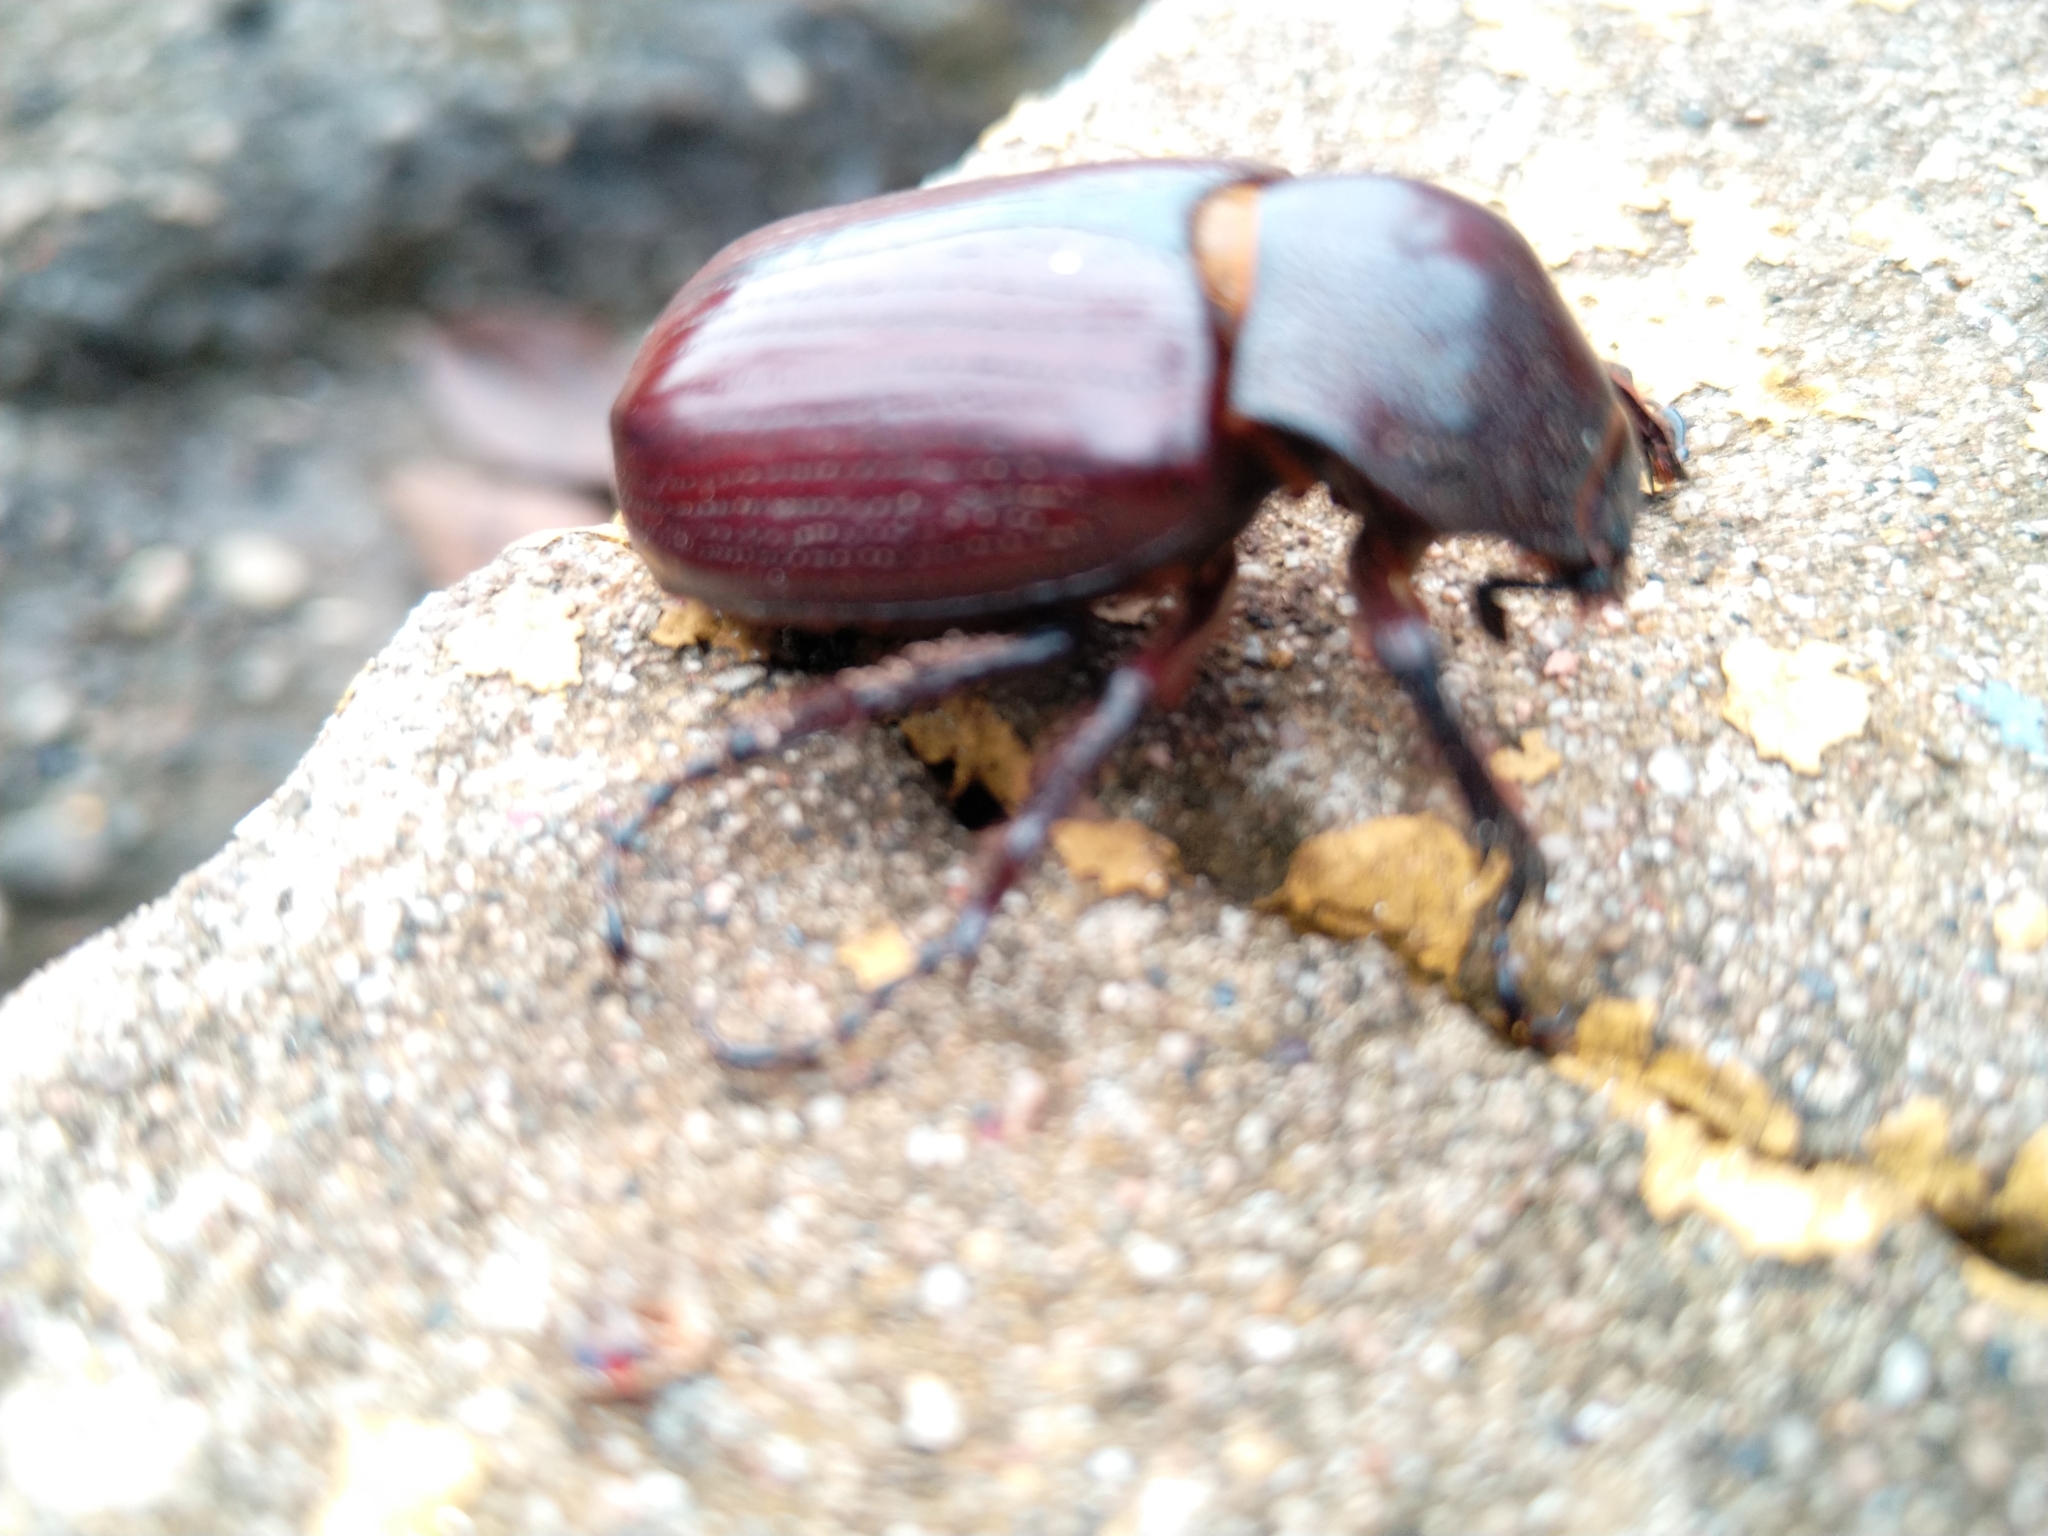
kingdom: Animalia
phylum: Arthropoda
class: Insecta
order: Coleoptera
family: Scarabaeidae
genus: Coelosis
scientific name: Coelosis biloba
